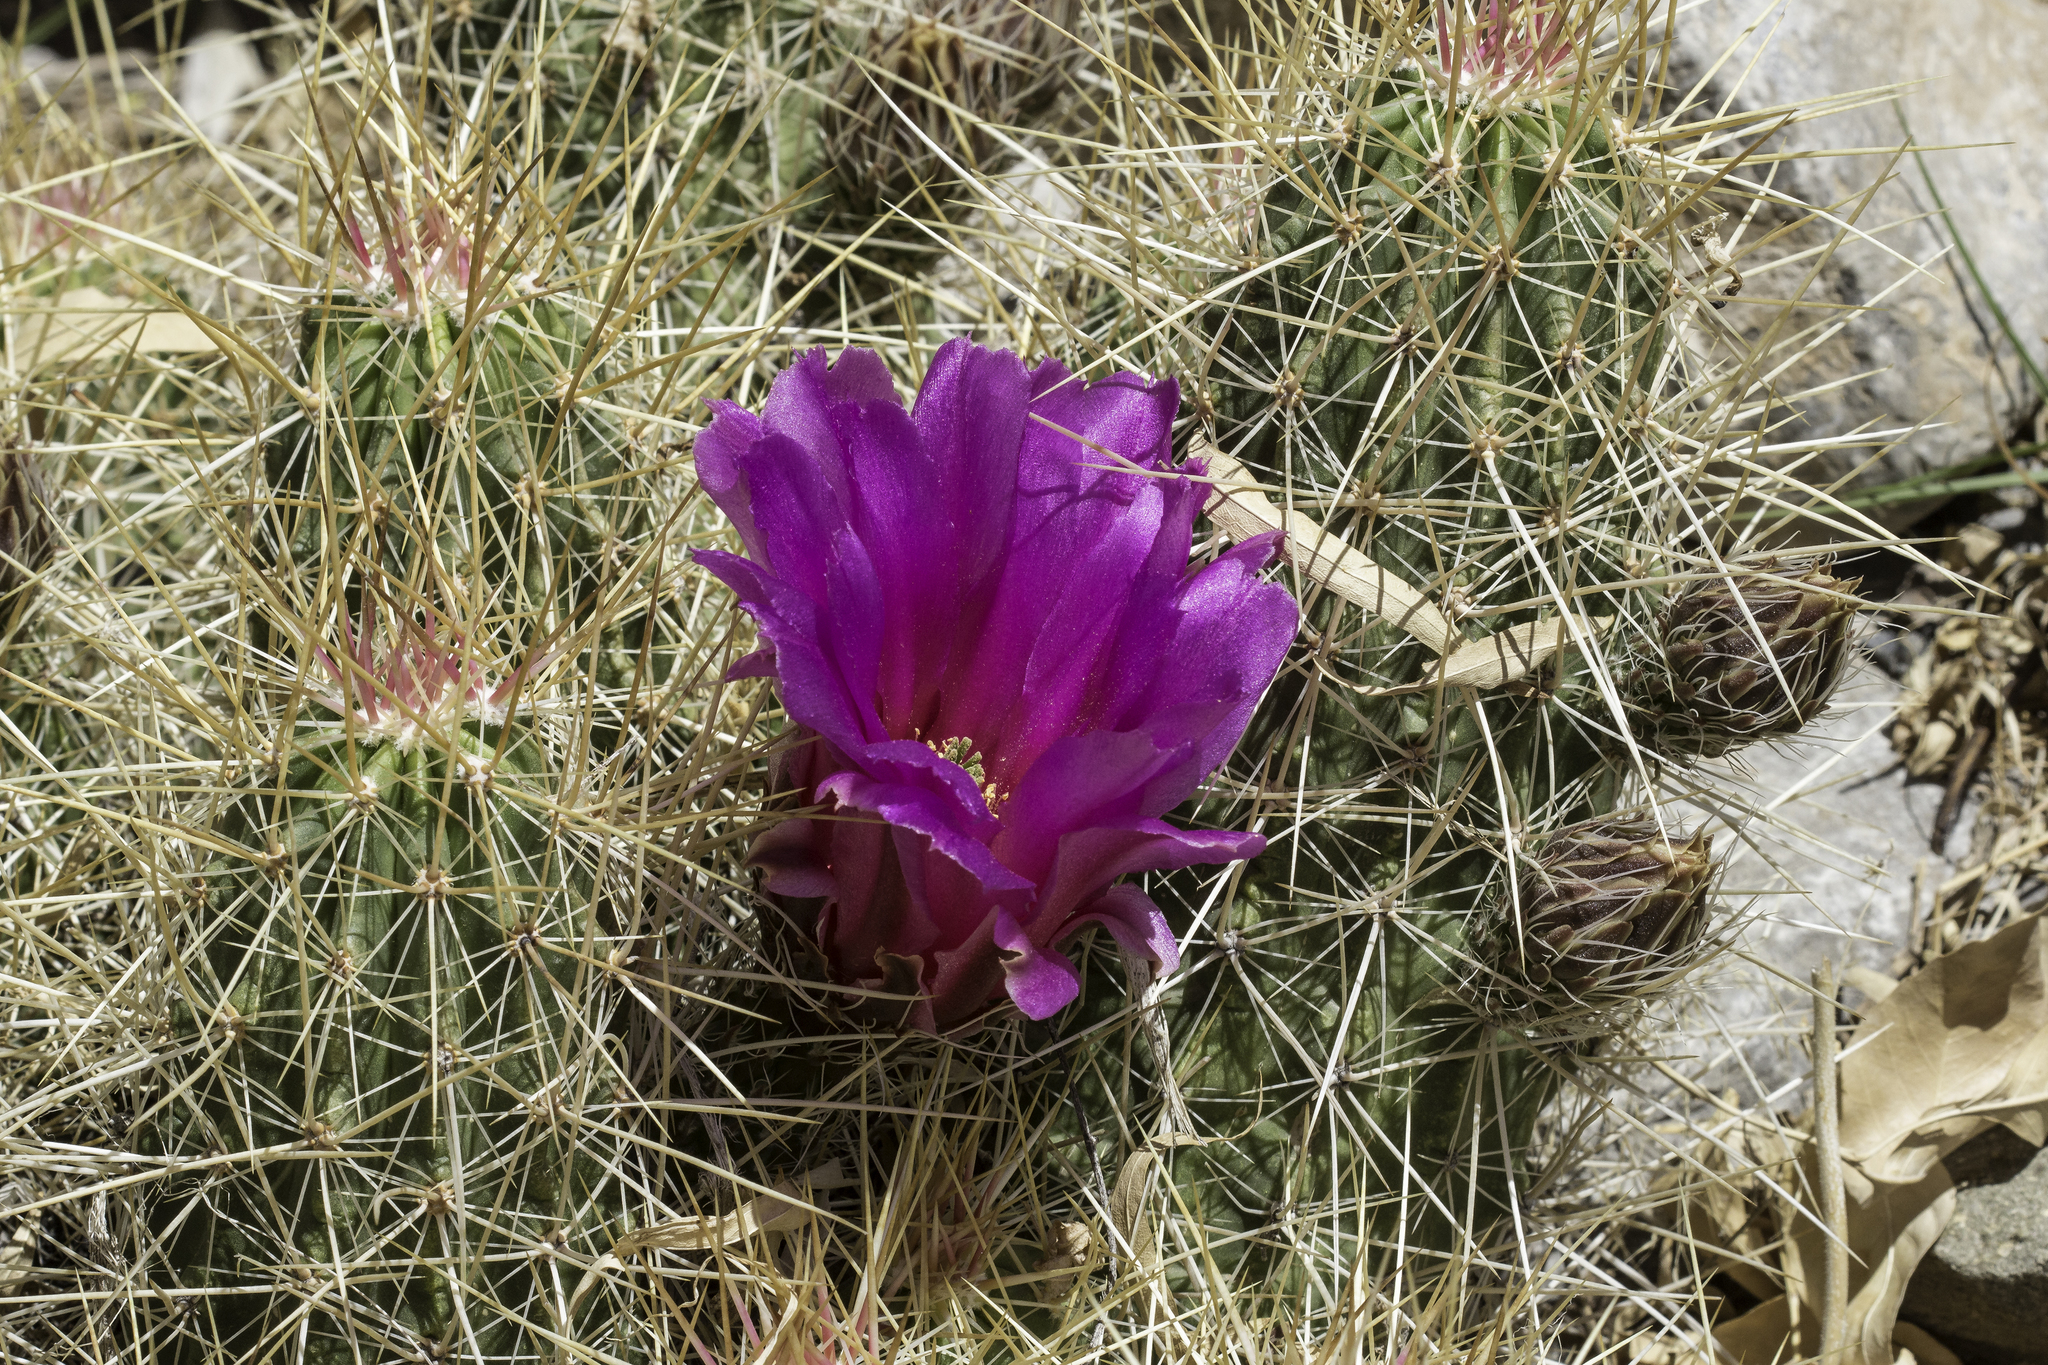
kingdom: Plantae
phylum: Tracheophyta
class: Magnoliopsida
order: Caryophyllales
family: Cactaceae
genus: Echinocereus
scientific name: Echinocereus stramineus
